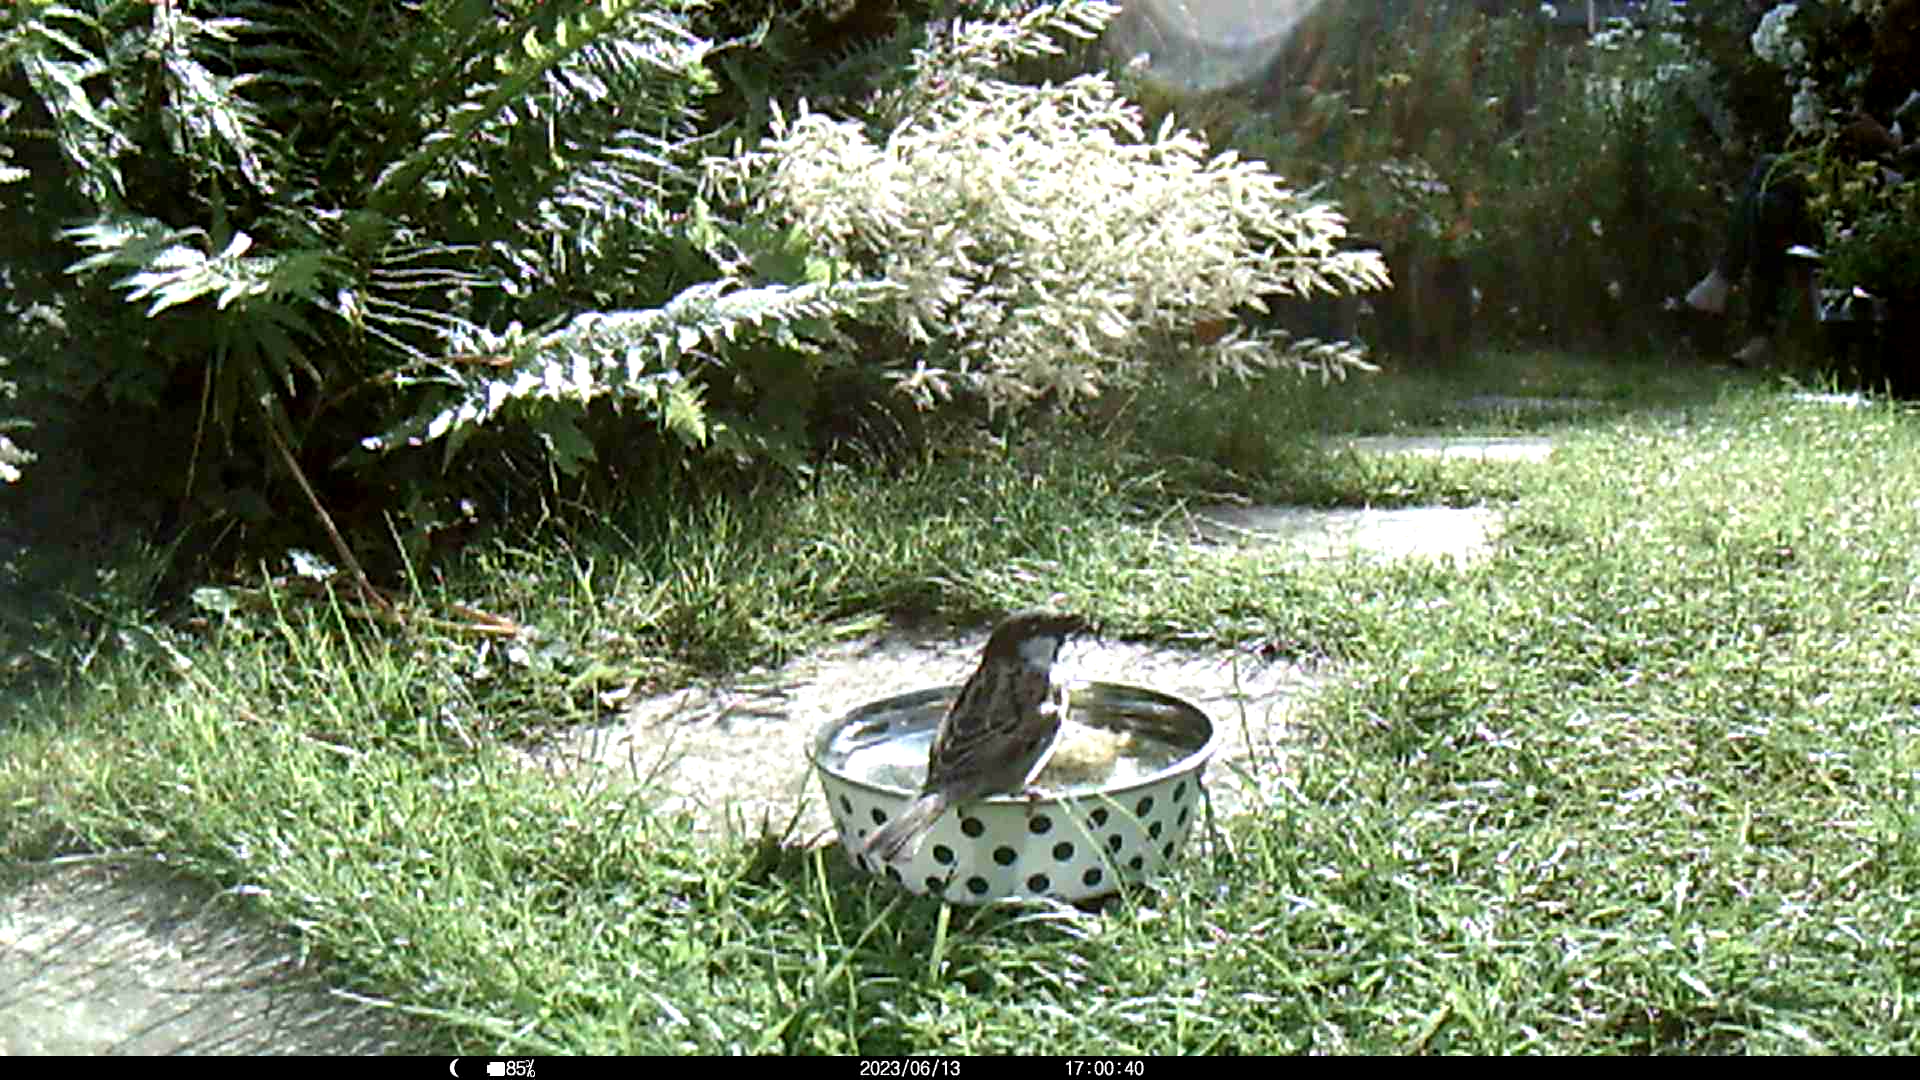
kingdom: Animalia
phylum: Chordata
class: Aves
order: Passeriformes
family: Passeridae
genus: Passer
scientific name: Passer domesticus
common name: House sparrow
